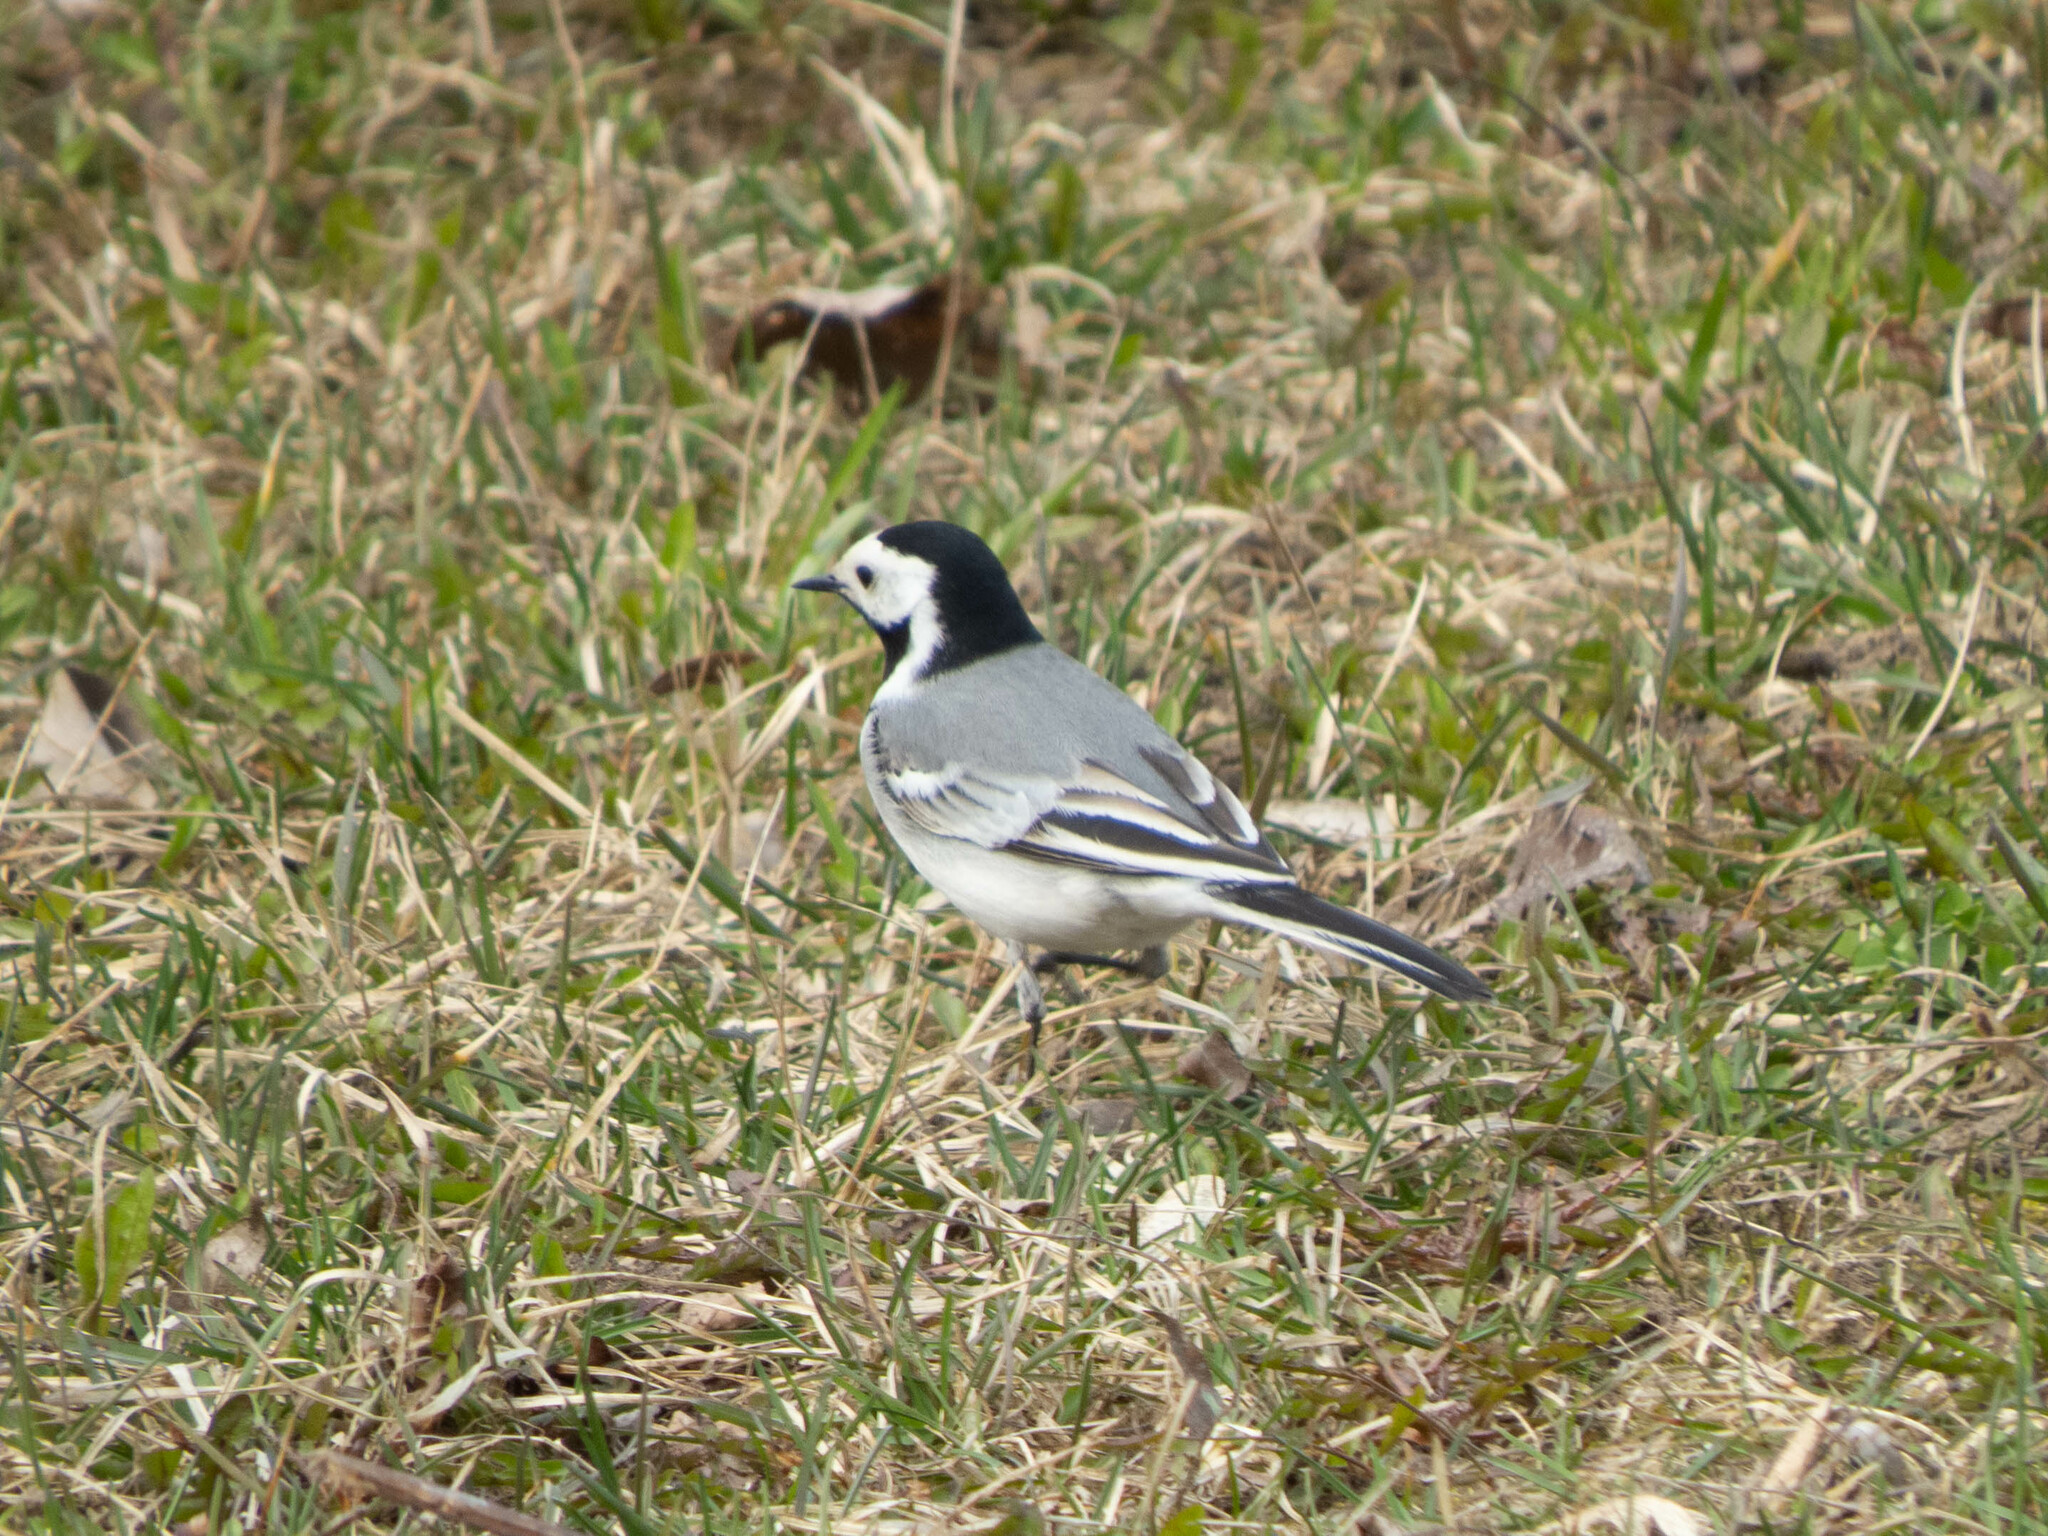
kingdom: Animalia
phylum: Chordata
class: Aves
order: Passeriformes
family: Motacillidae
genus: Motacilla
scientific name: Motacilla alba
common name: White wagtail
